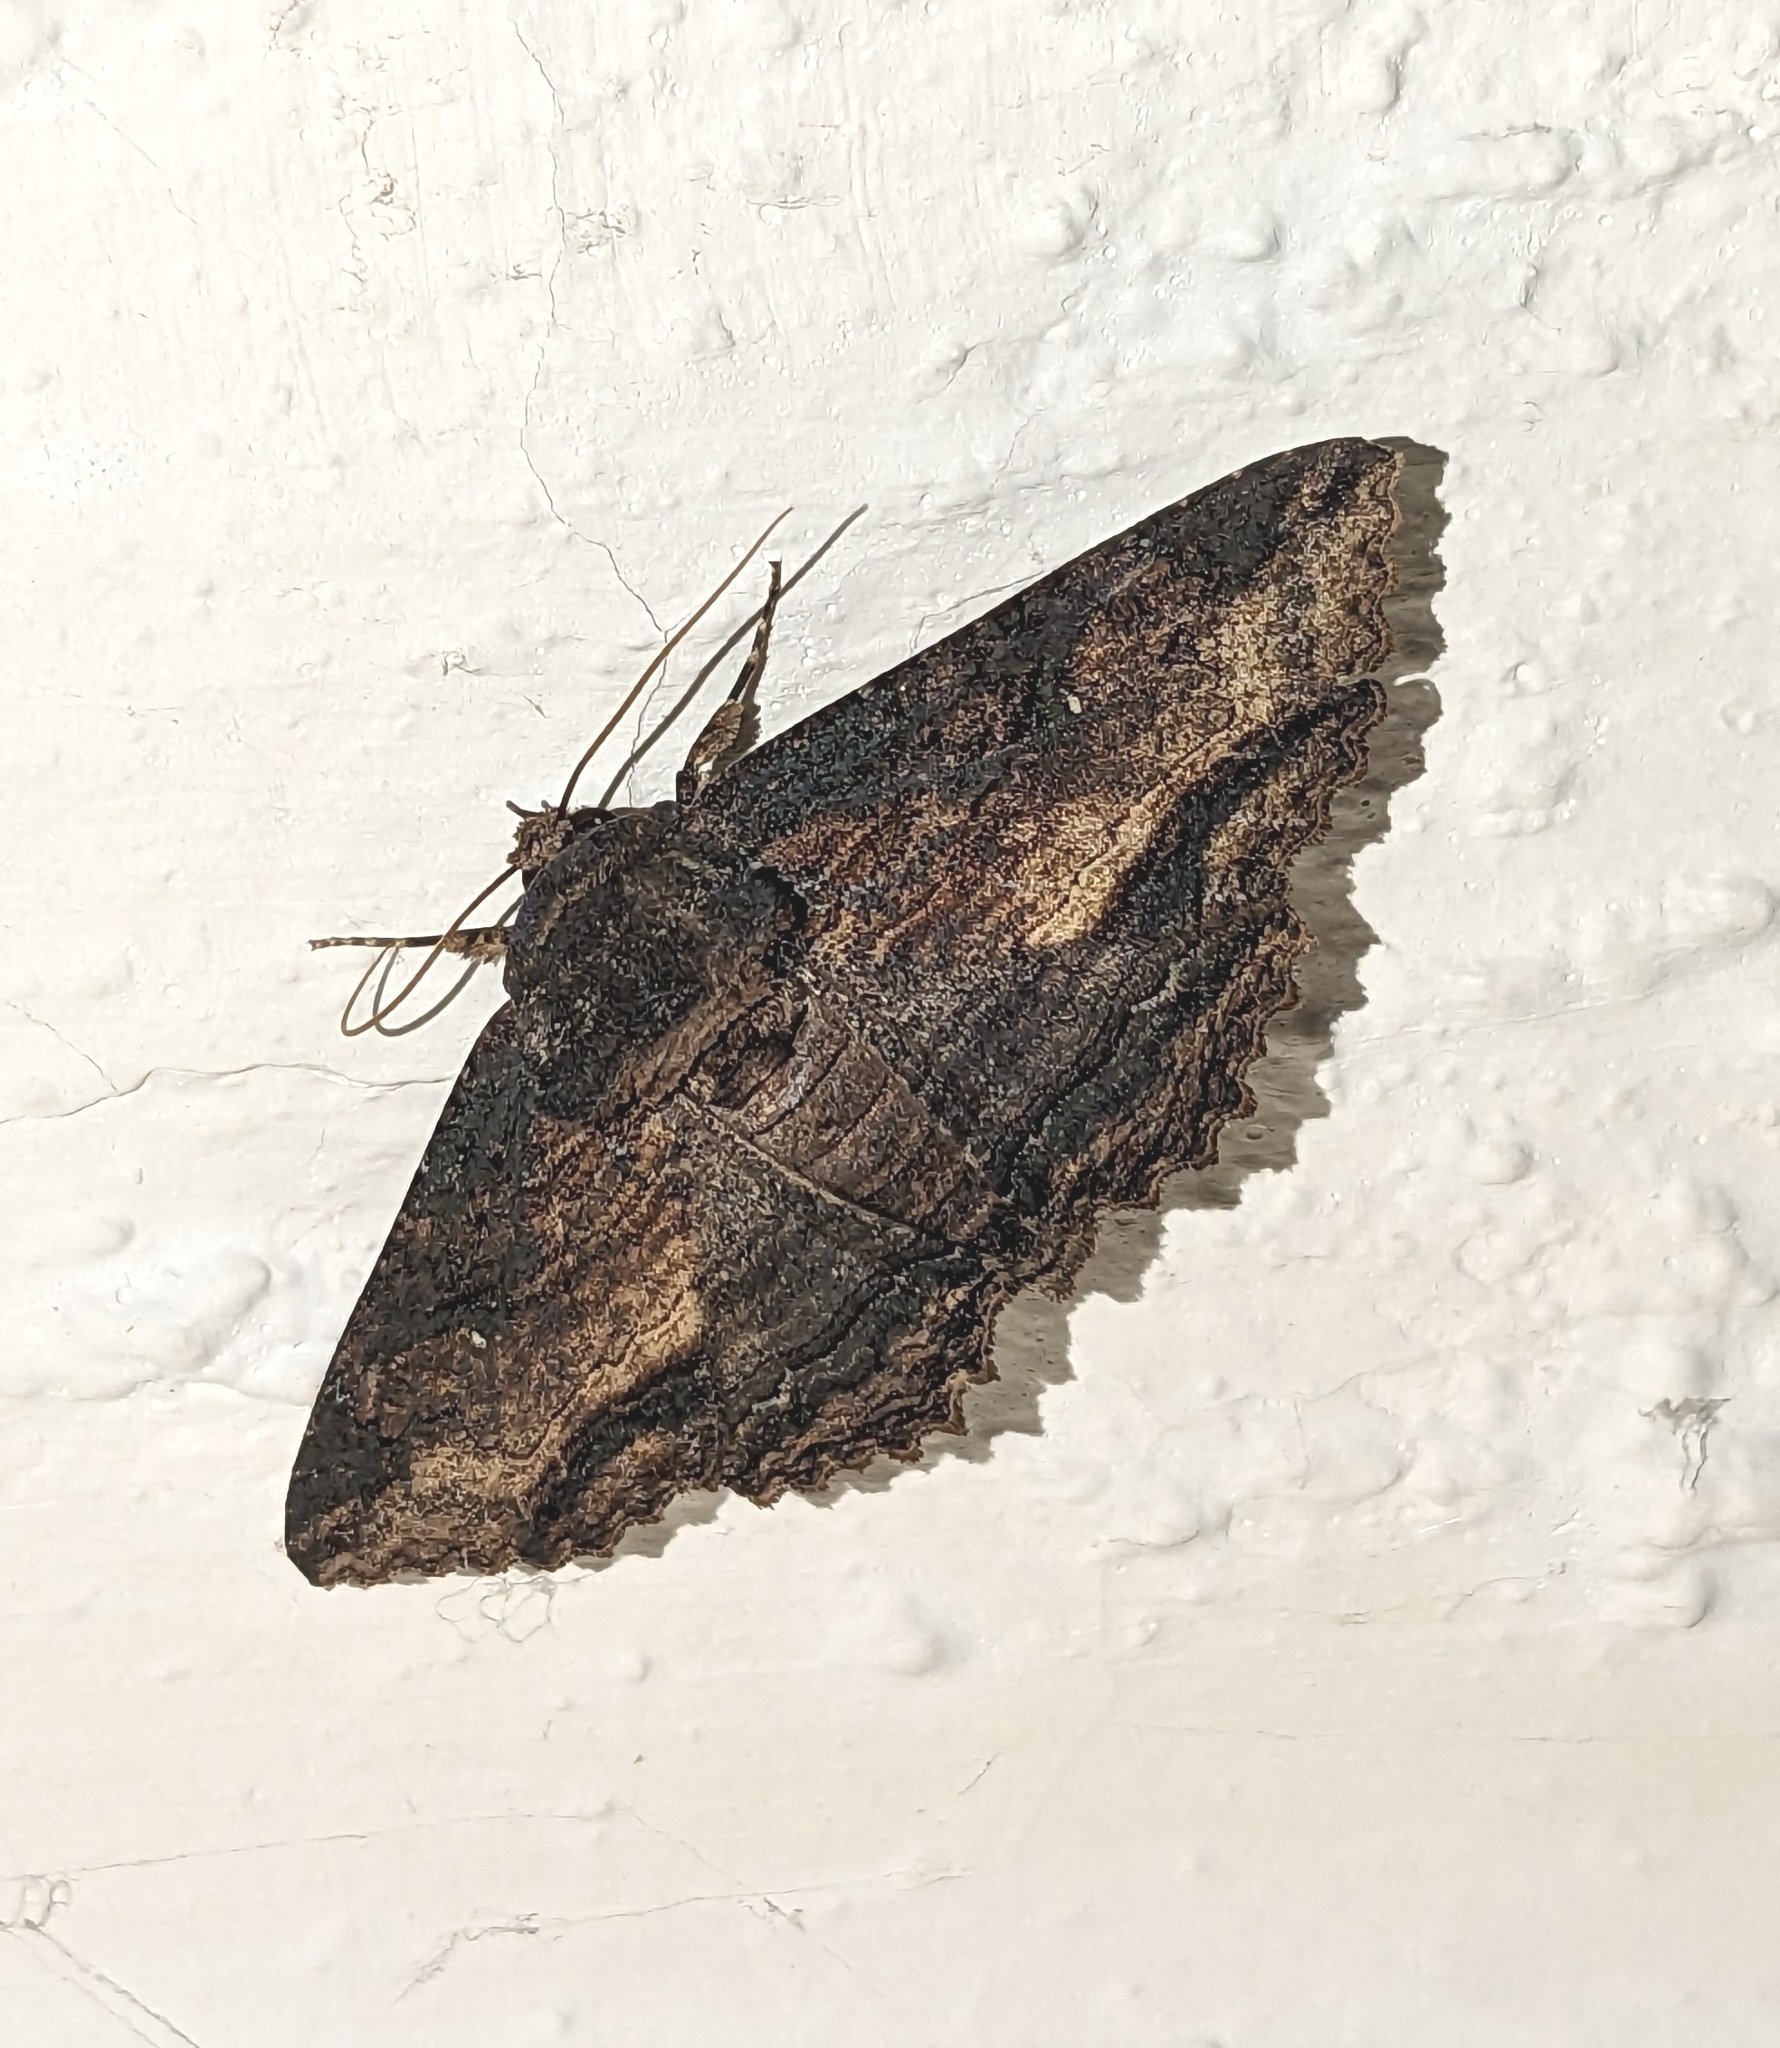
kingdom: Animalia
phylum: Arthropoda
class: Insecta
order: Lepidoptera
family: Erebidae
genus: Zale
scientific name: Zale lunata
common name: Lunate zale moth
